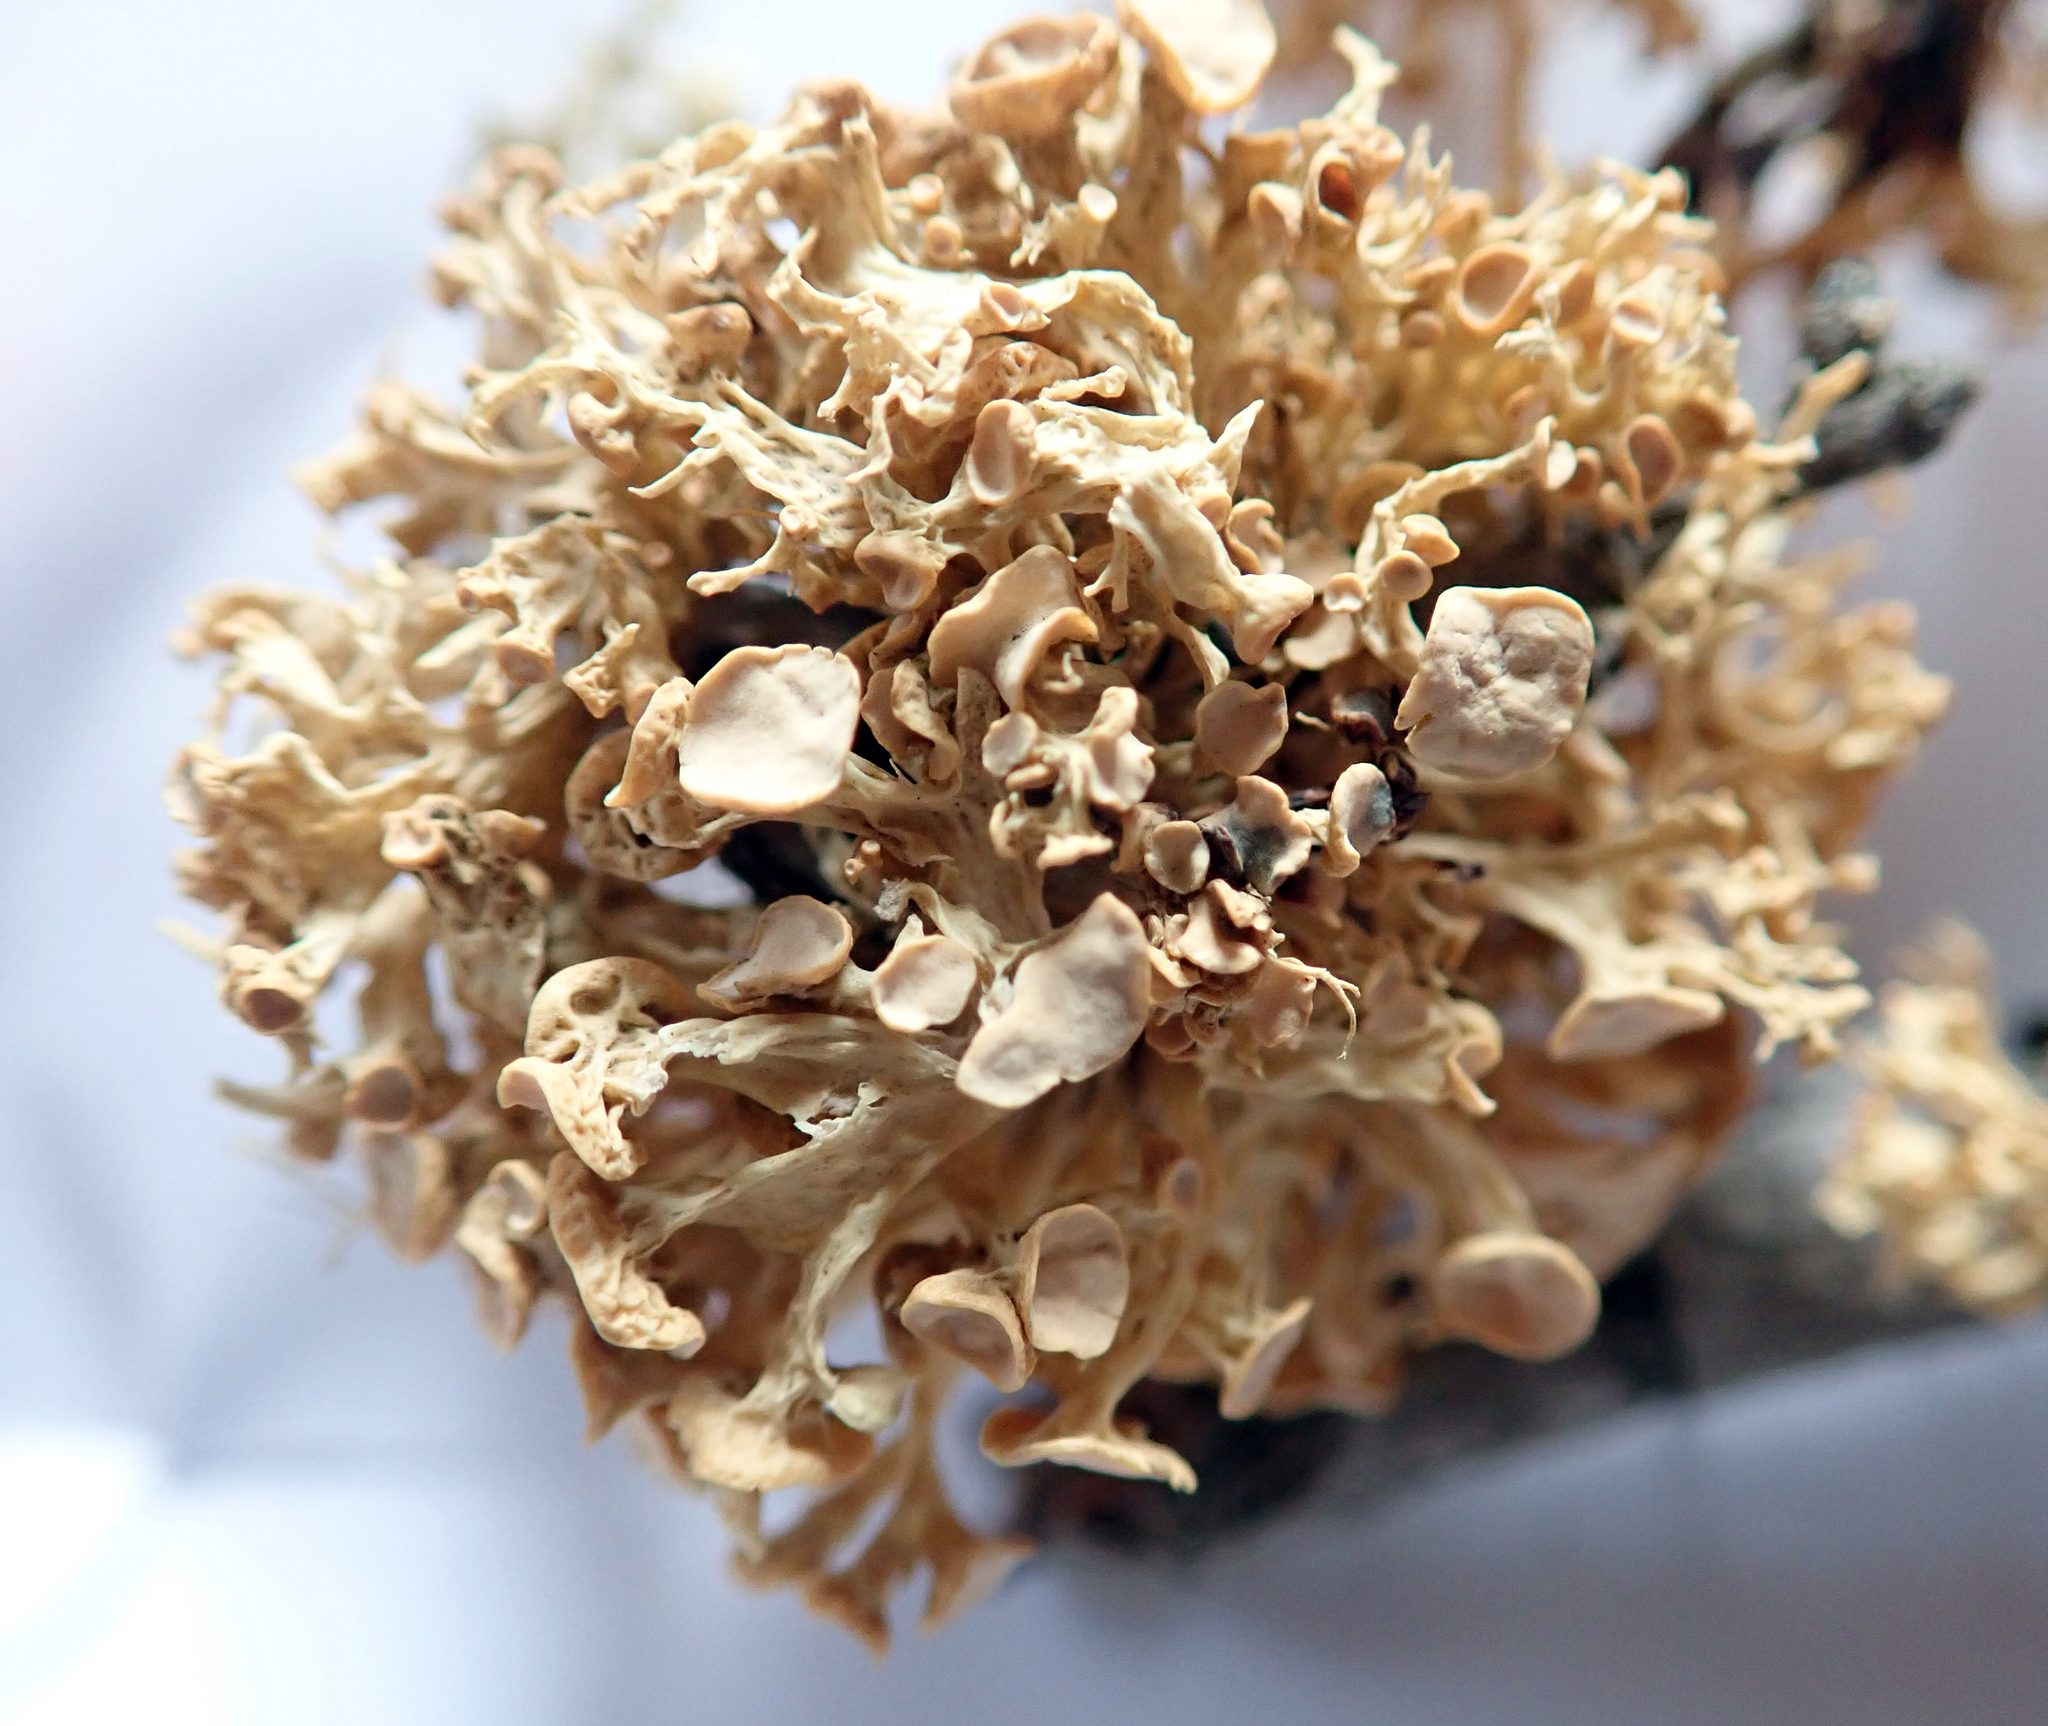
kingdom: Fungi
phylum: Ascomycota
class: Lecanoromycetes
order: Lecanorales
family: Ramalinaceae
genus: Ramalina
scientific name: Ramalina glaucescens
